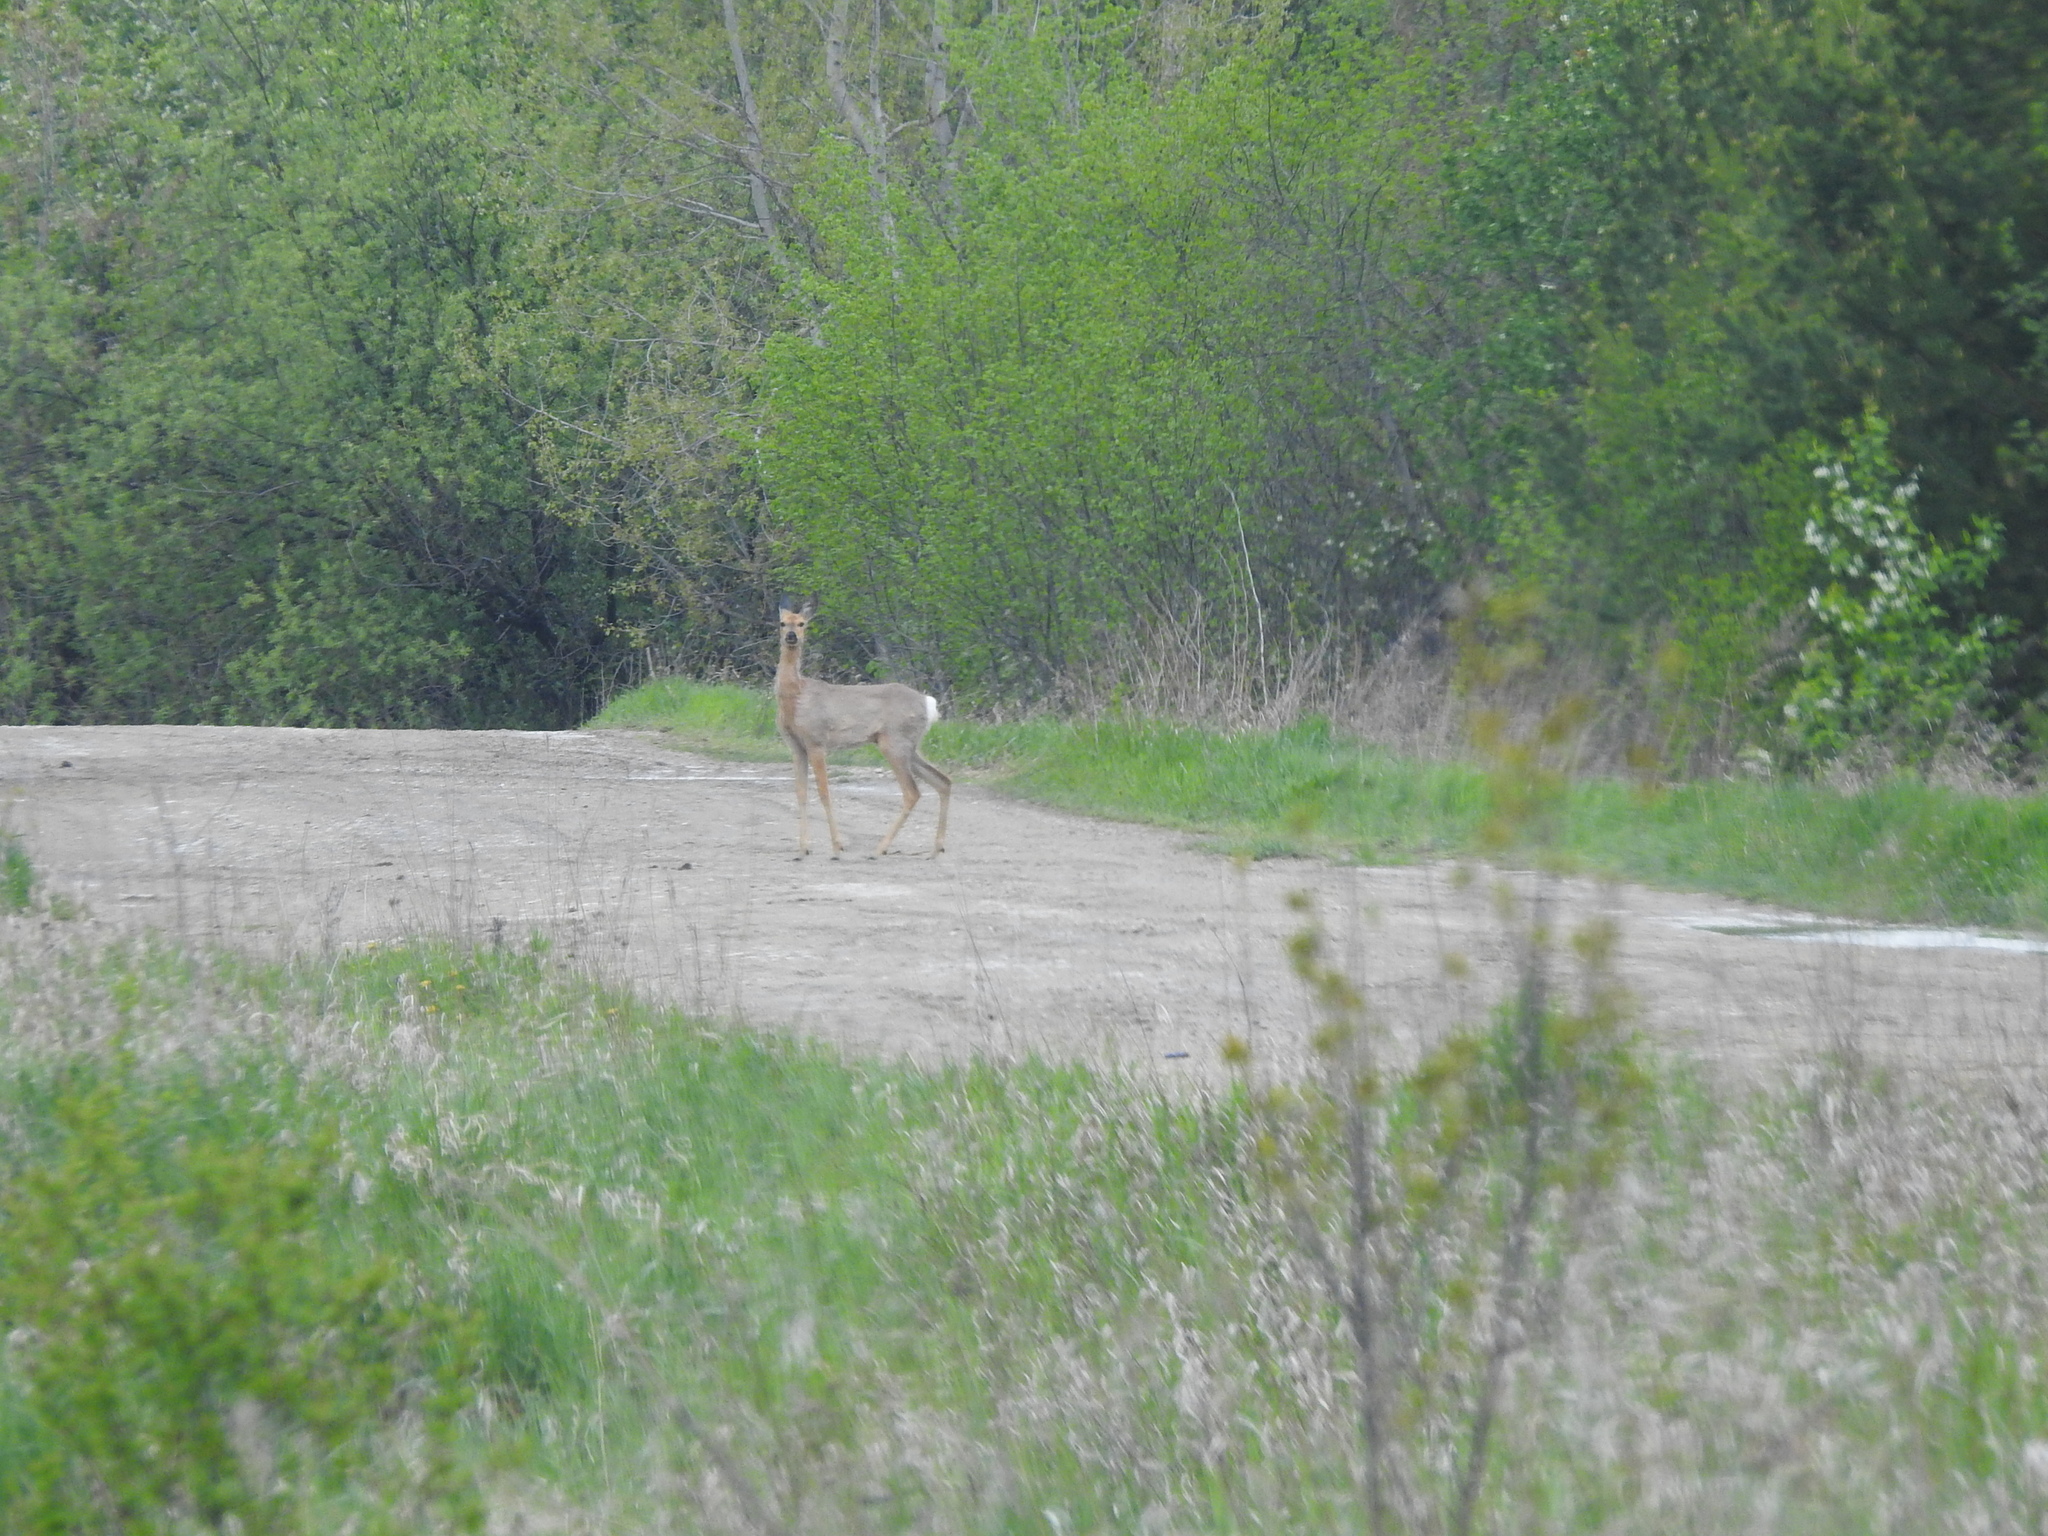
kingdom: Animalia
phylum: Chordata
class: Mammalia
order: Artiodactyla
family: Cervidae
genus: Capreolus
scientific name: Capreolus pygargus
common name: Siberian roe
